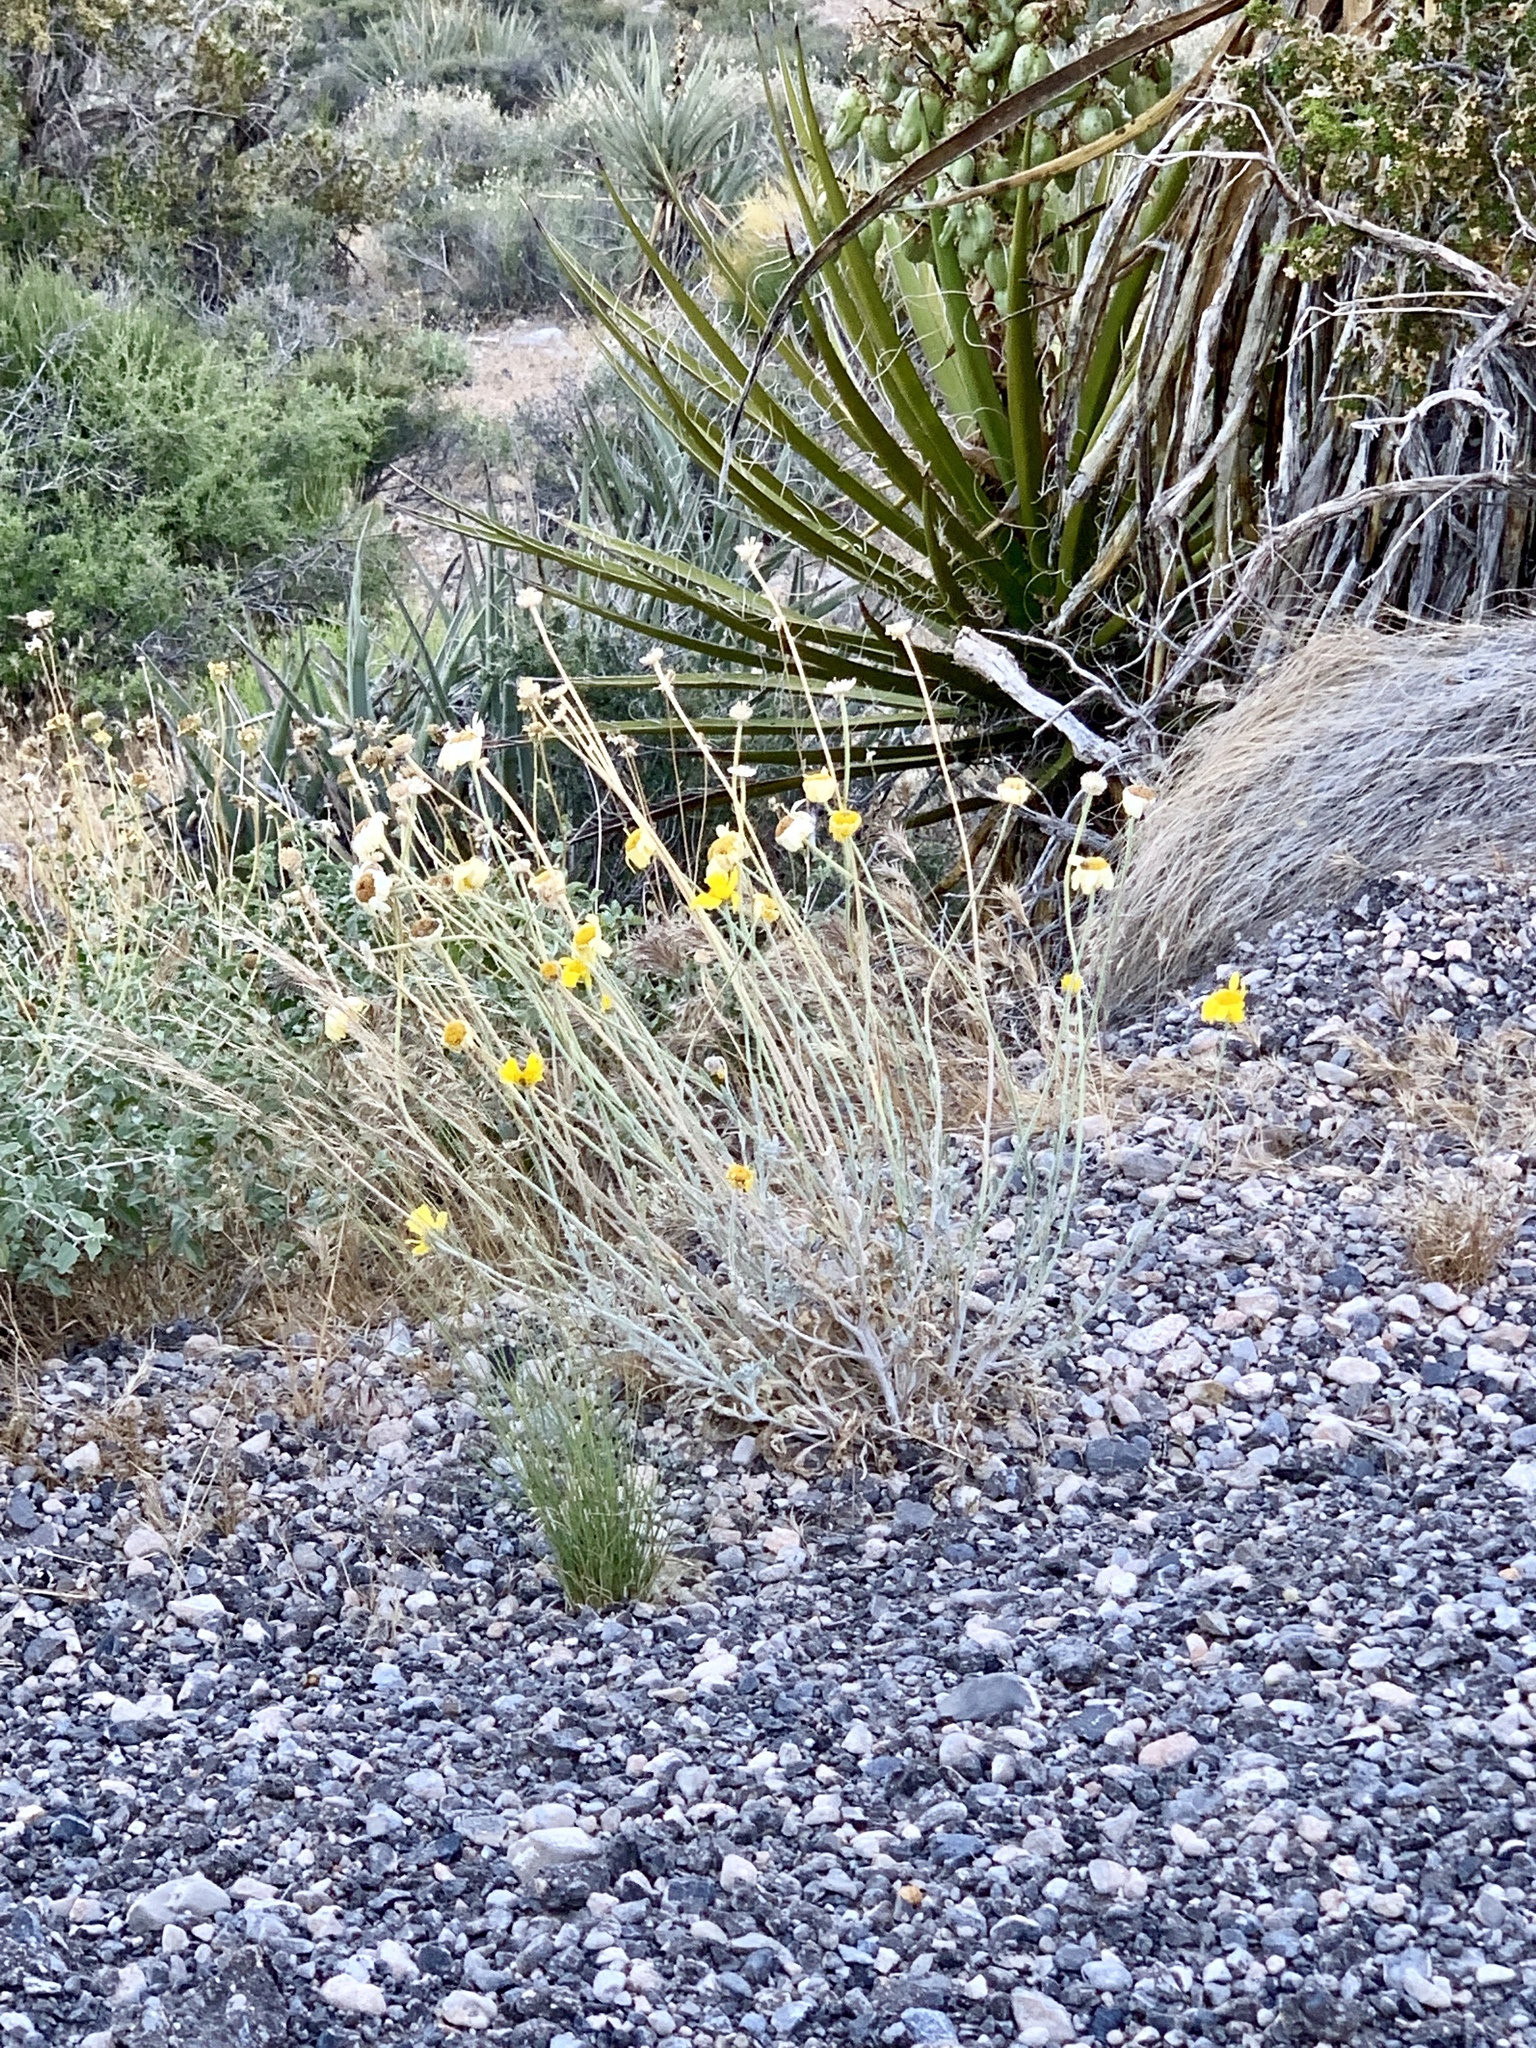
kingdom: Plantae
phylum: Tracheophyta
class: Magnoliopsida
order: Asterales
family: Asteraceae
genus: Baileya
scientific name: Baileya multiradiata
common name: Desert-marigold
